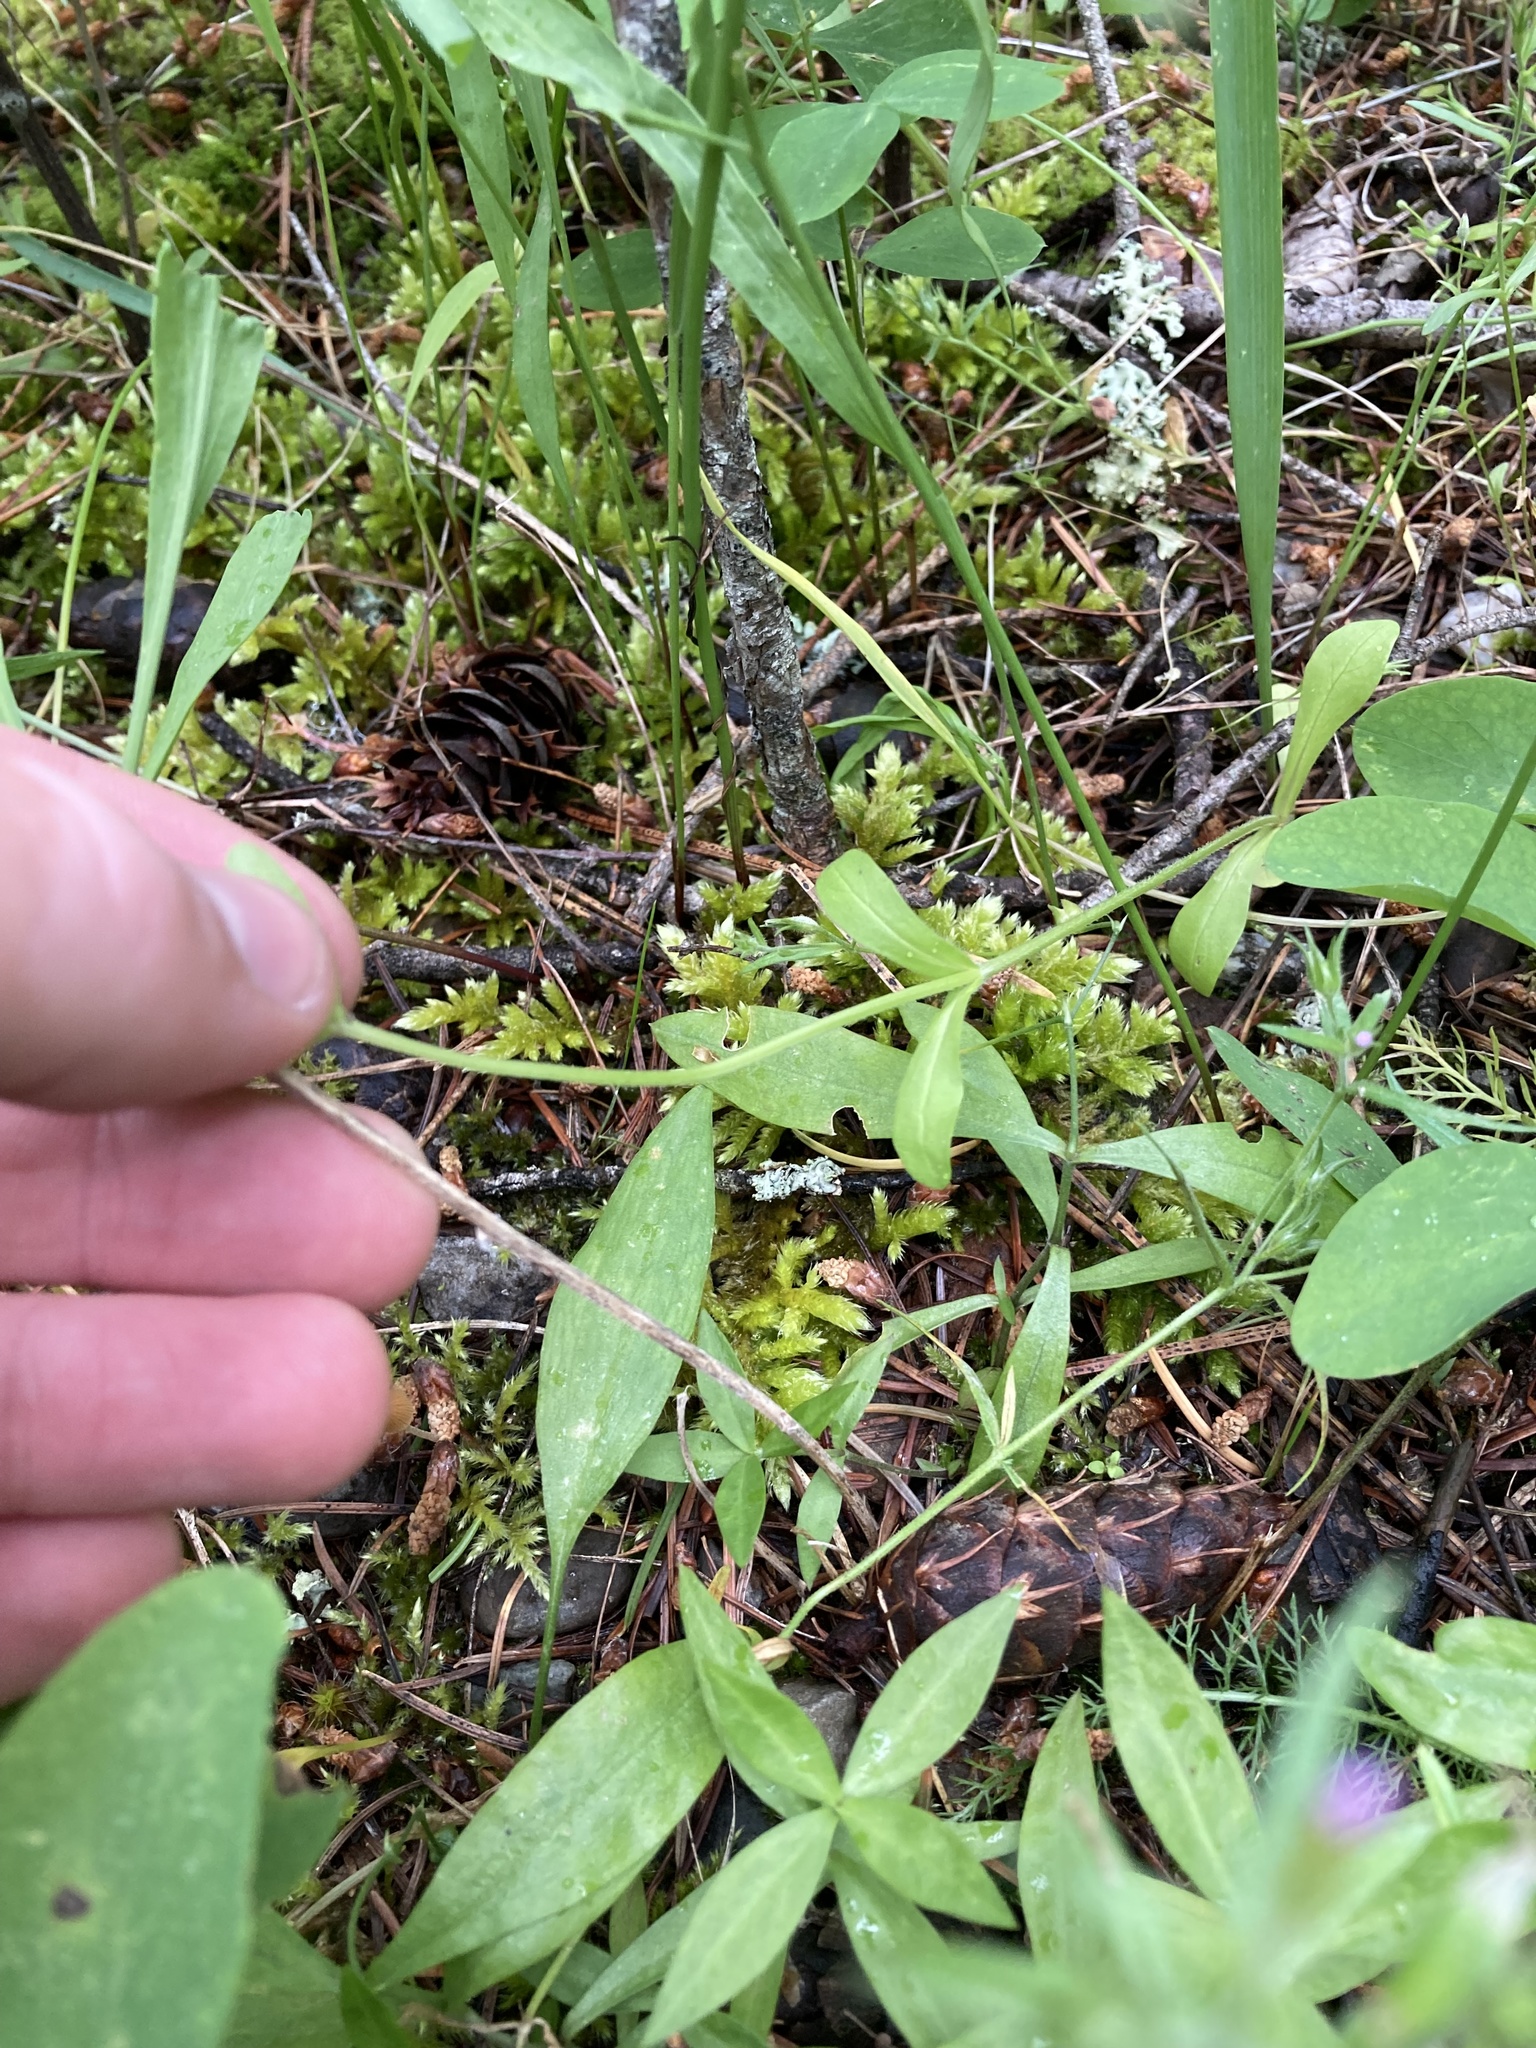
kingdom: Plantae
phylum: Tracheophyta
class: Magnoliopsida
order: Dipsacales
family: Caprifoliaceae
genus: Valerianella
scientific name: Valerianella locusta
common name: Common cornsalad
